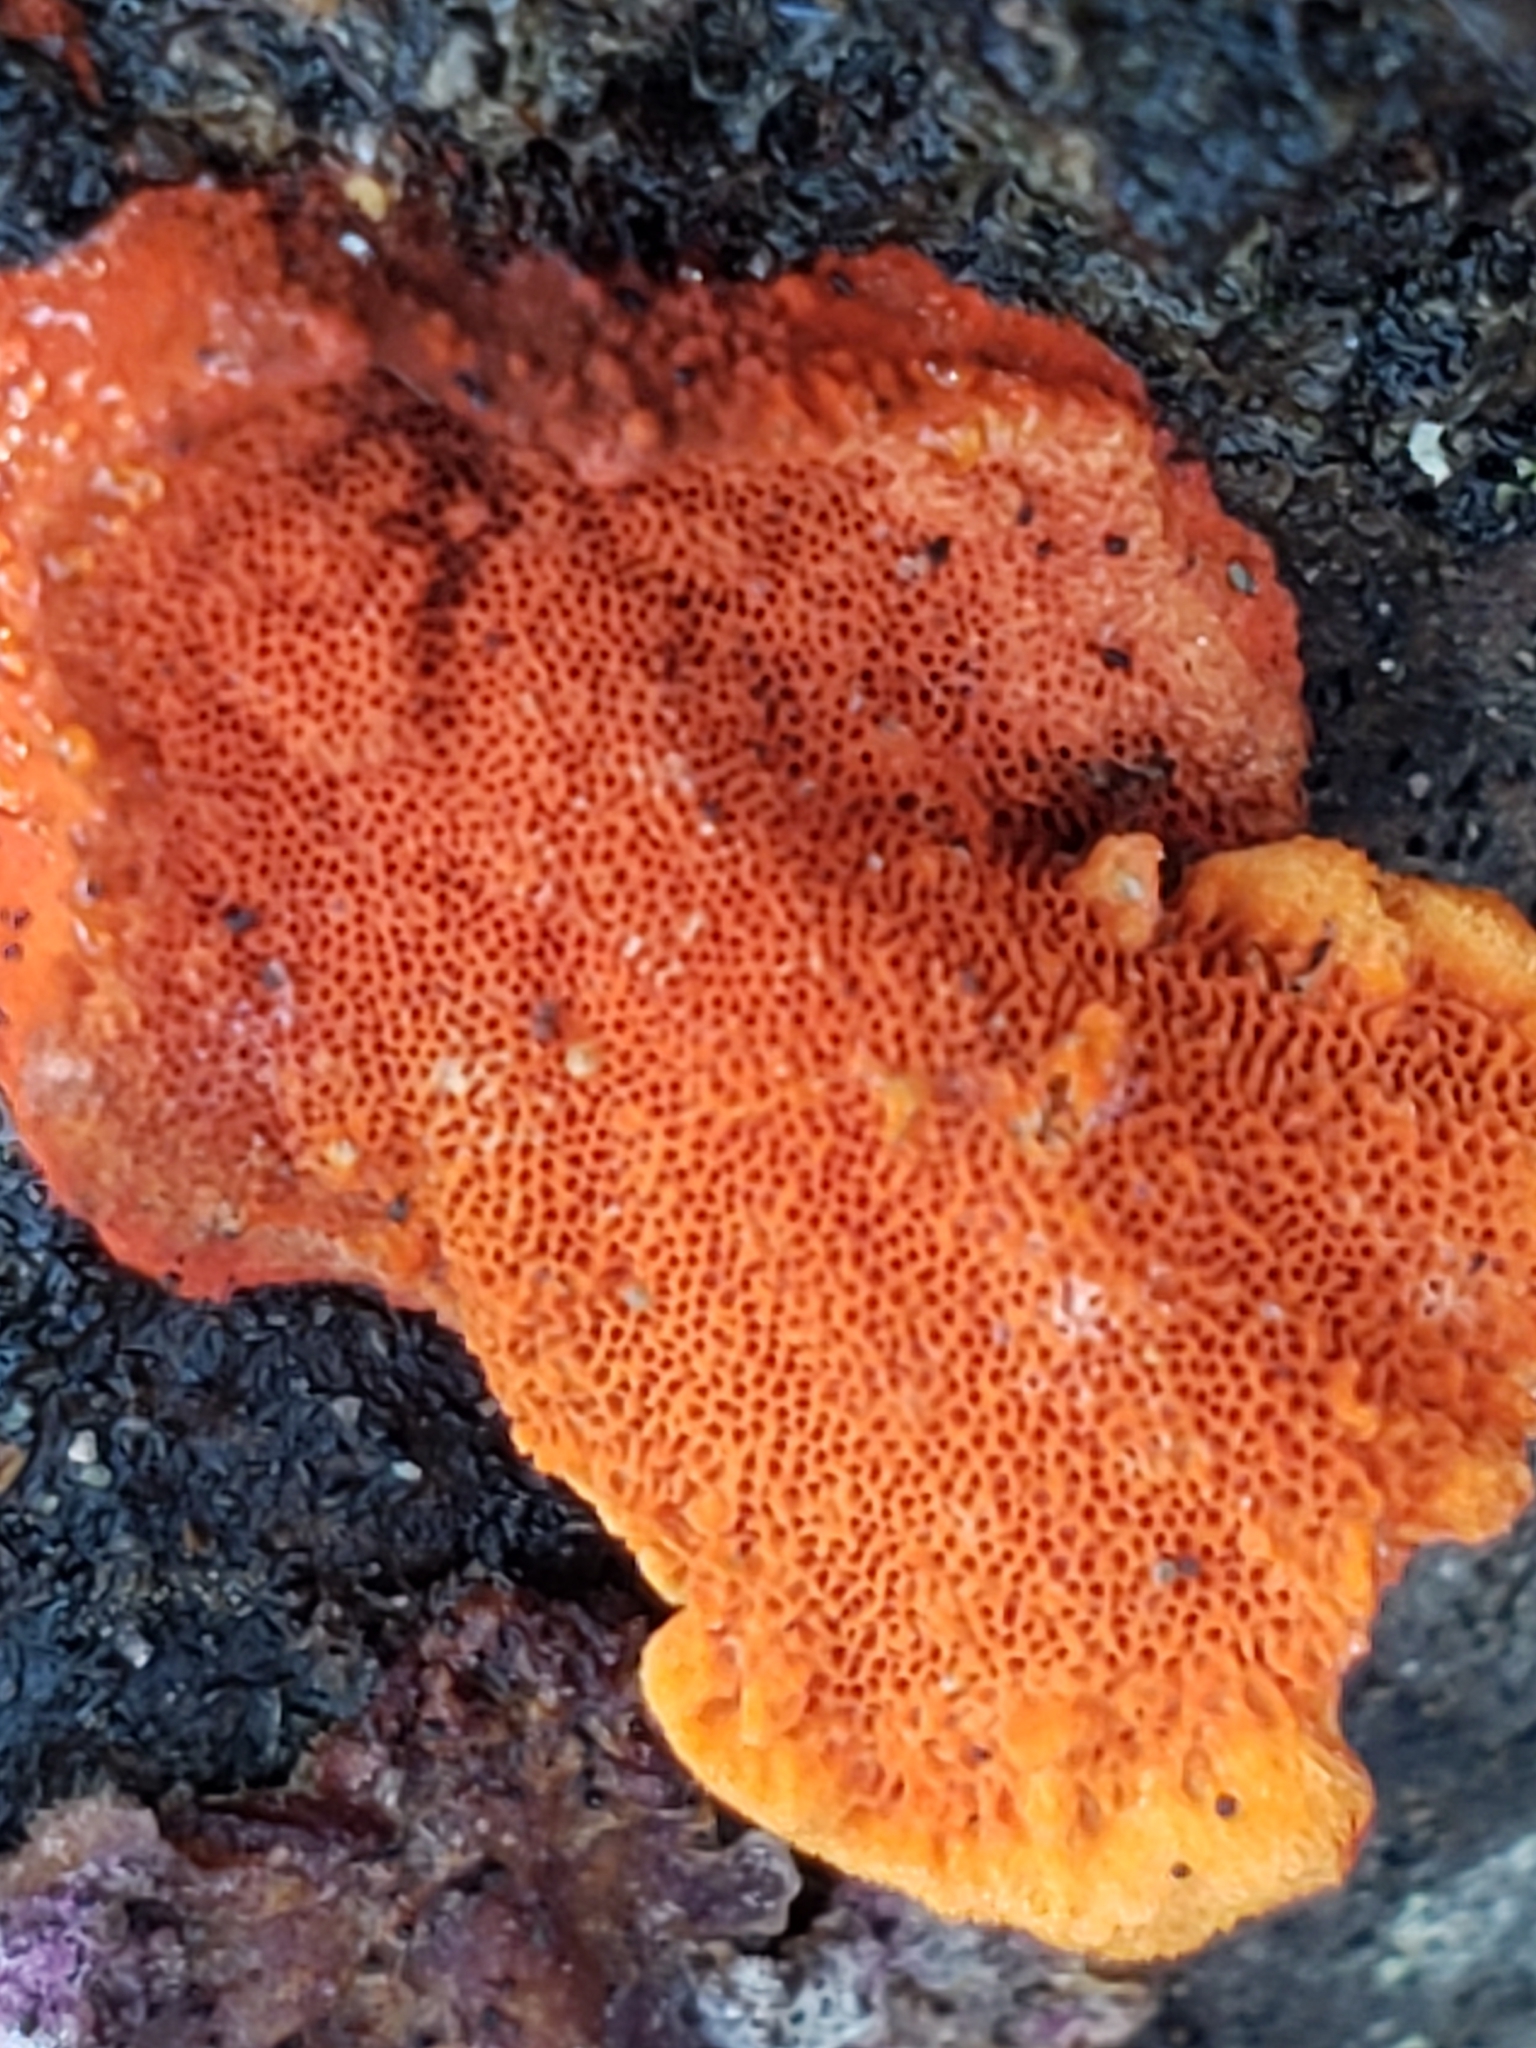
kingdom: Fungi
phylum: Basidiomycota
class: Agaricomycetes
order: Polyporales
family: Polyporaceae
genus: Trametes
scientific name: Trametes cinnabarina
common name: Northern cinnabar polypore
